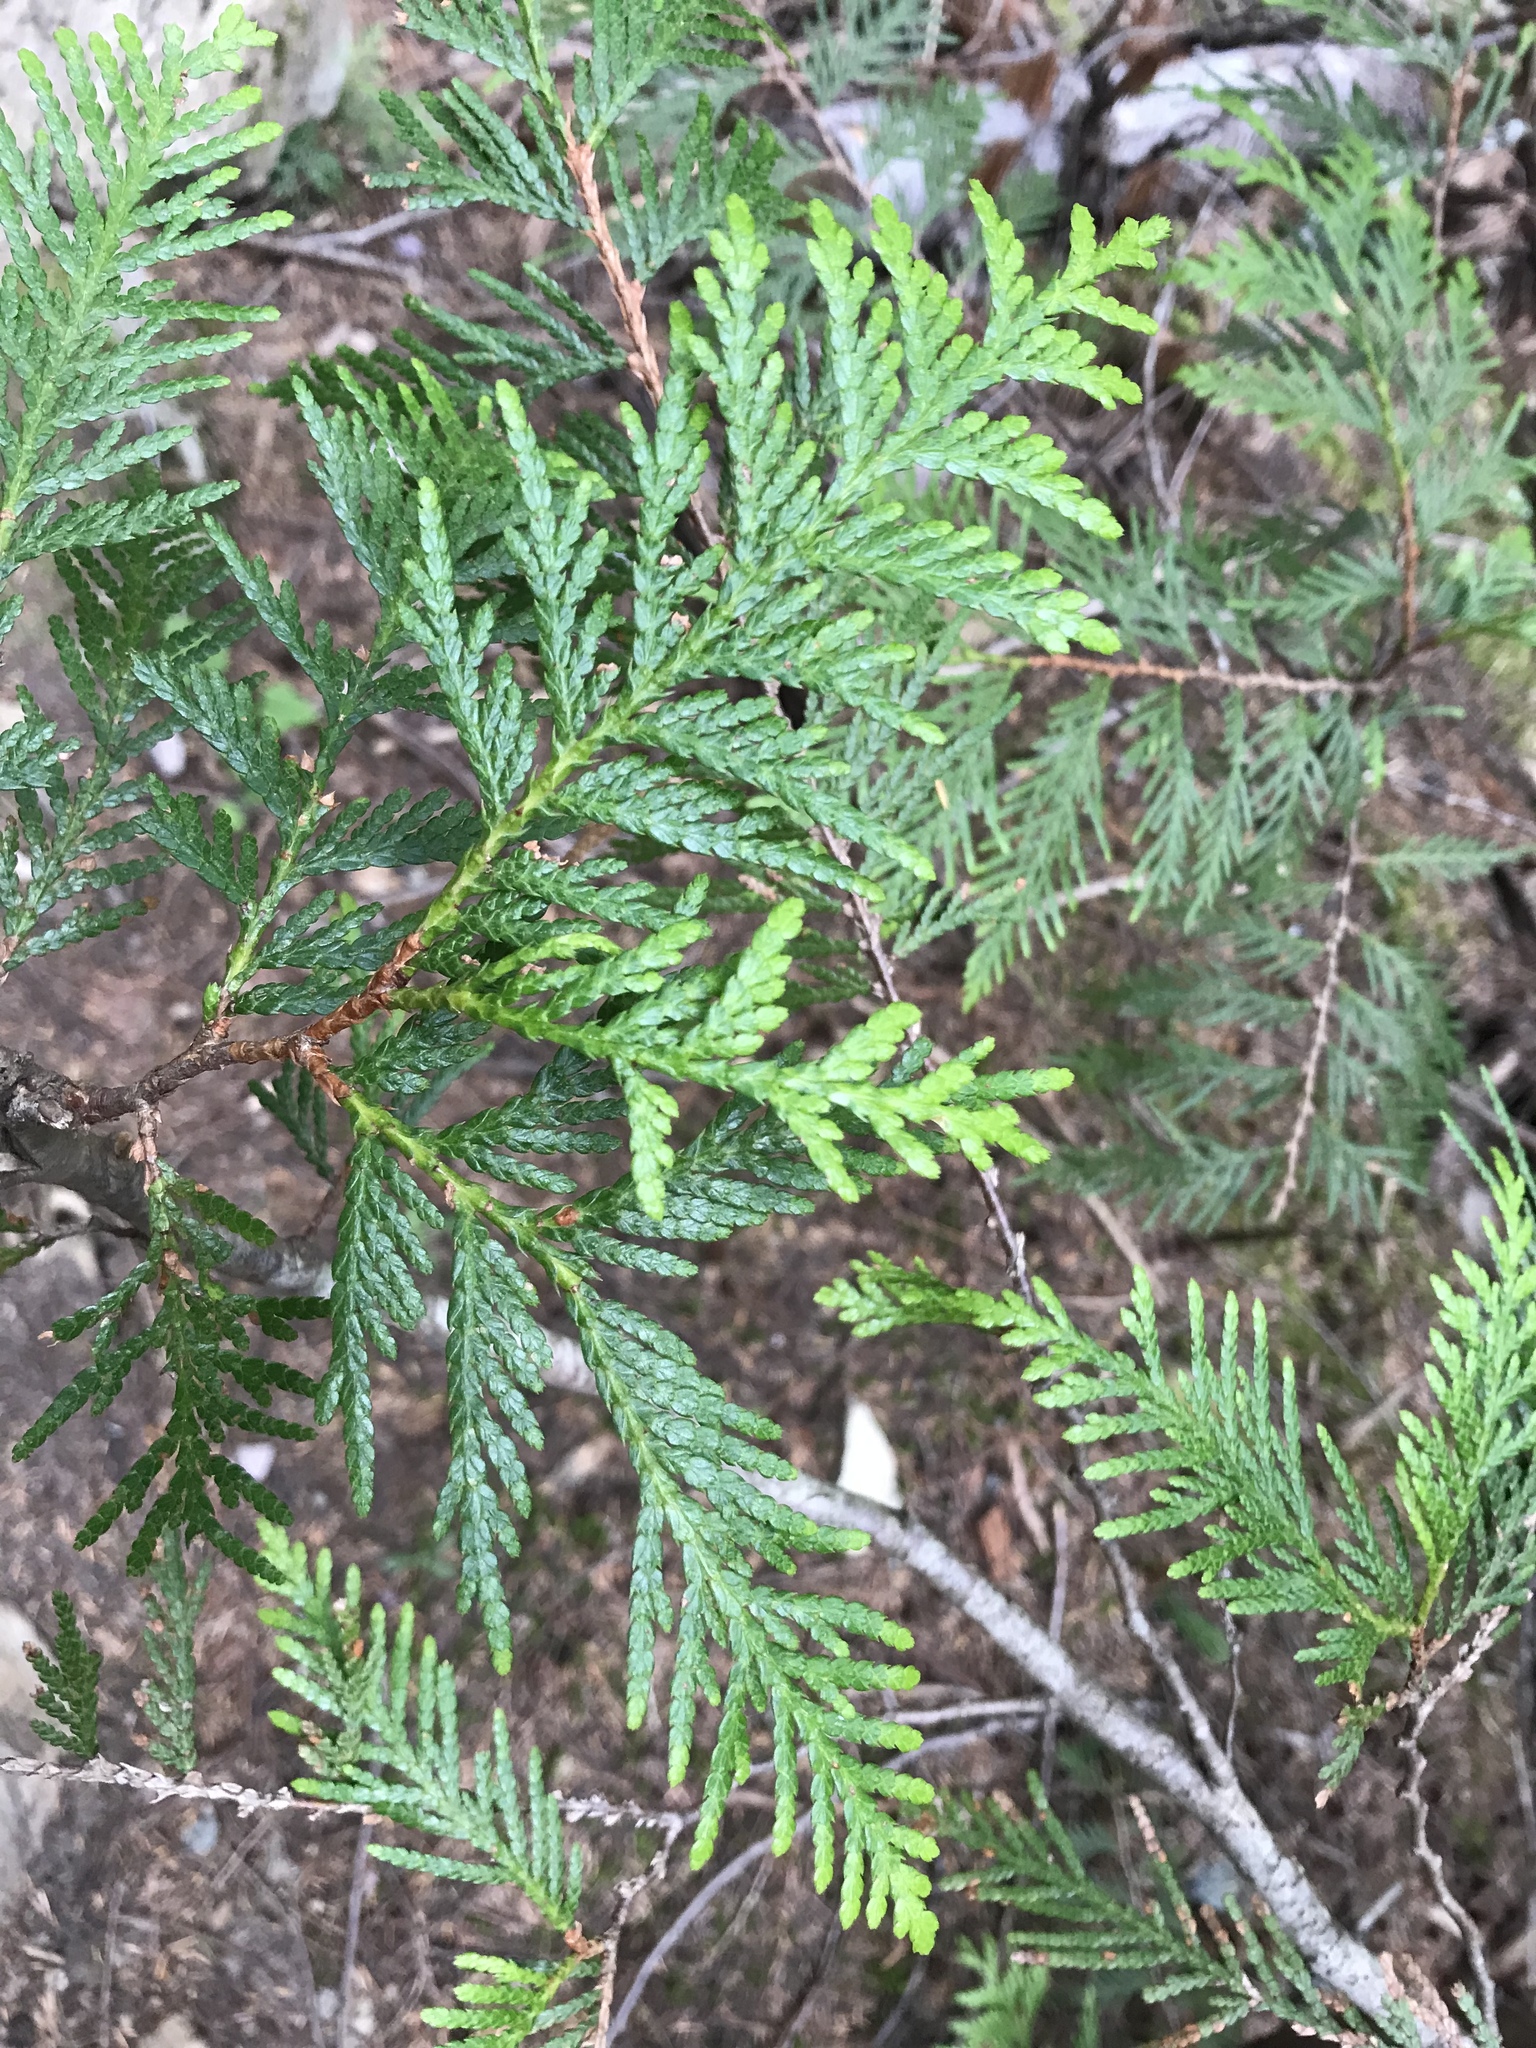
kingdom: Plantae
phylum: Tracheophyta
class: Pinopsida
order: Pinales
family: Cupressaceae
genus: Thuja
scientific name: Thuja plicata
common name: Western red-cedar
